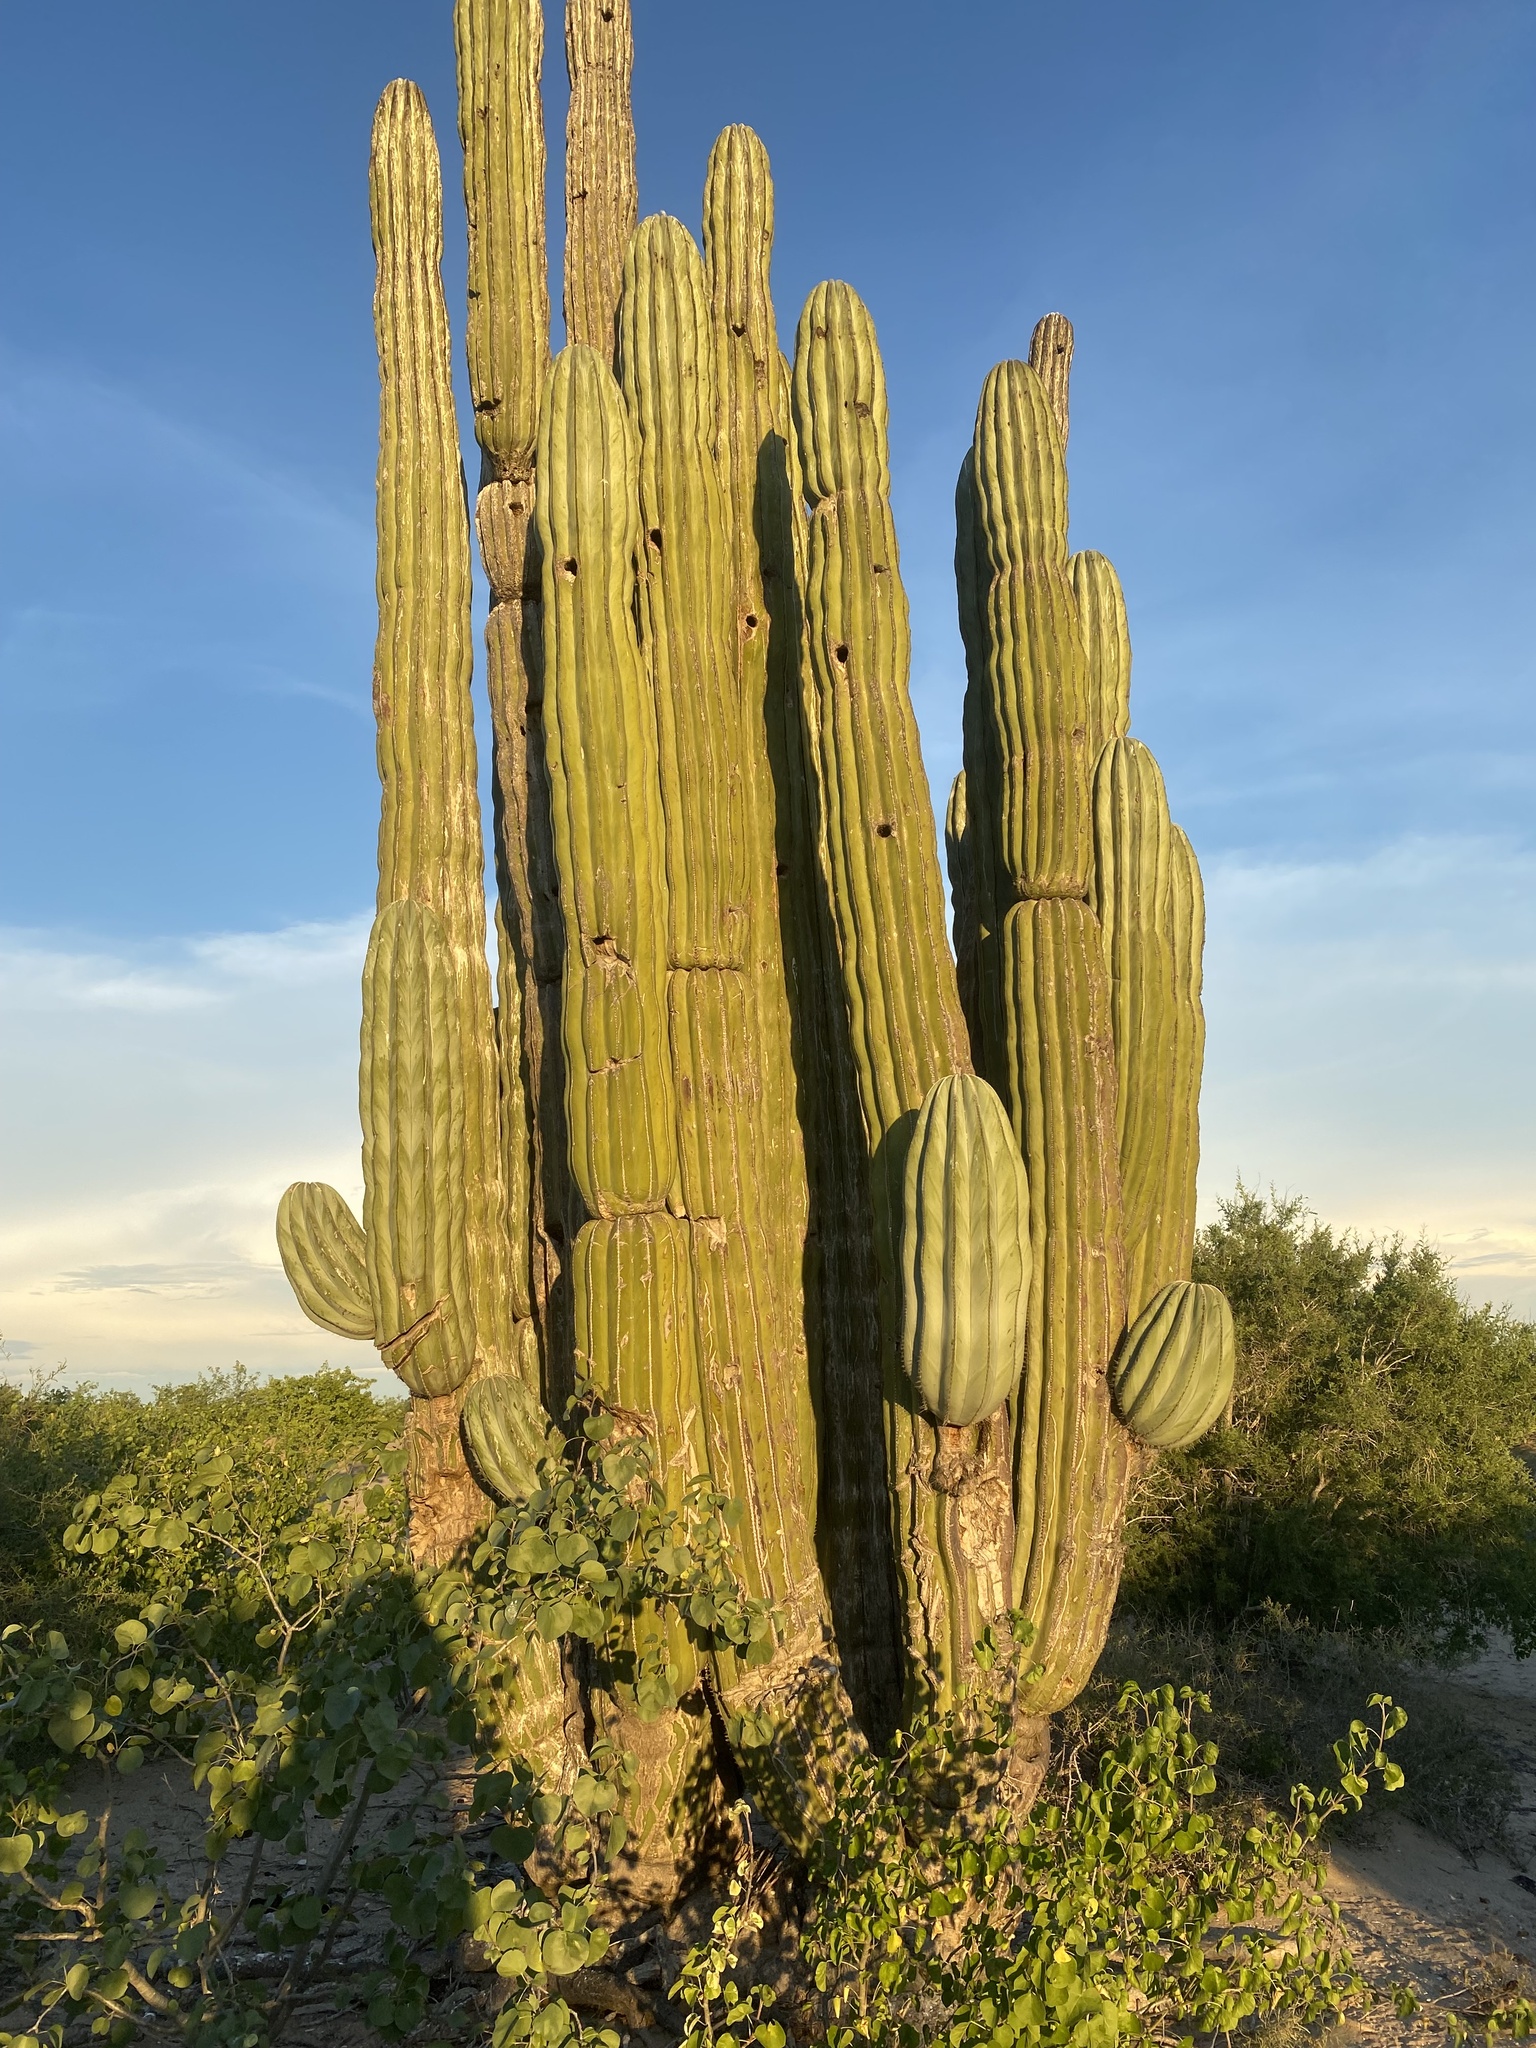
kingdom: Plantae
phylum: Tracheophyta
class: Magnoliopsida
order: Caryophyllales
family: Cactaceae
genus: Pachycereus
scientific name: Pachycereus pringlei
